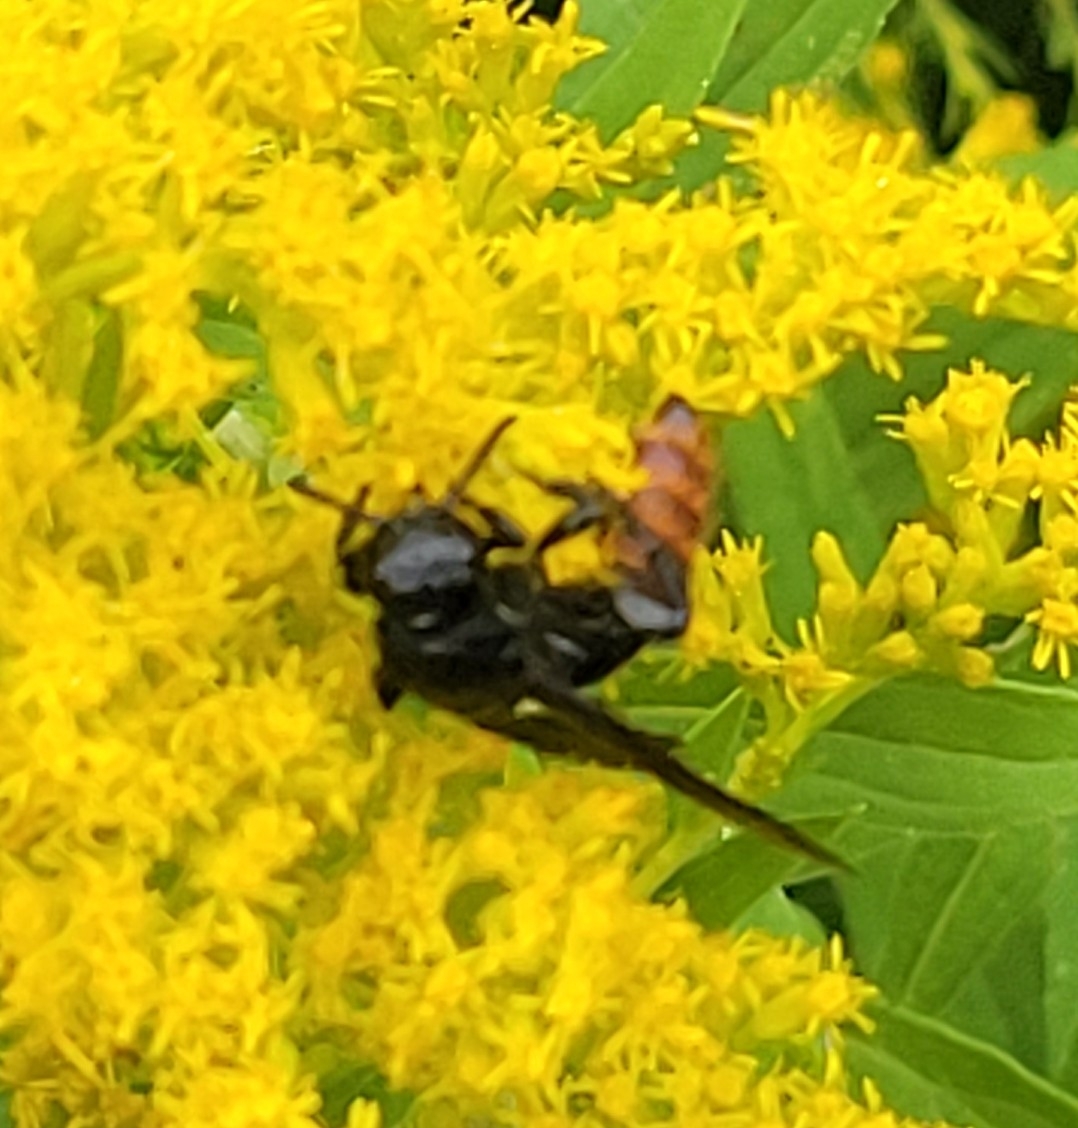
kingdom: Animalia
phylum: Arthropoda
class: Insecta
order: Hymenoptera
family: Scoliidae
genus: Scolia
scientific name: Scolia dubia
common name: Blue-winged scoliid wasp
